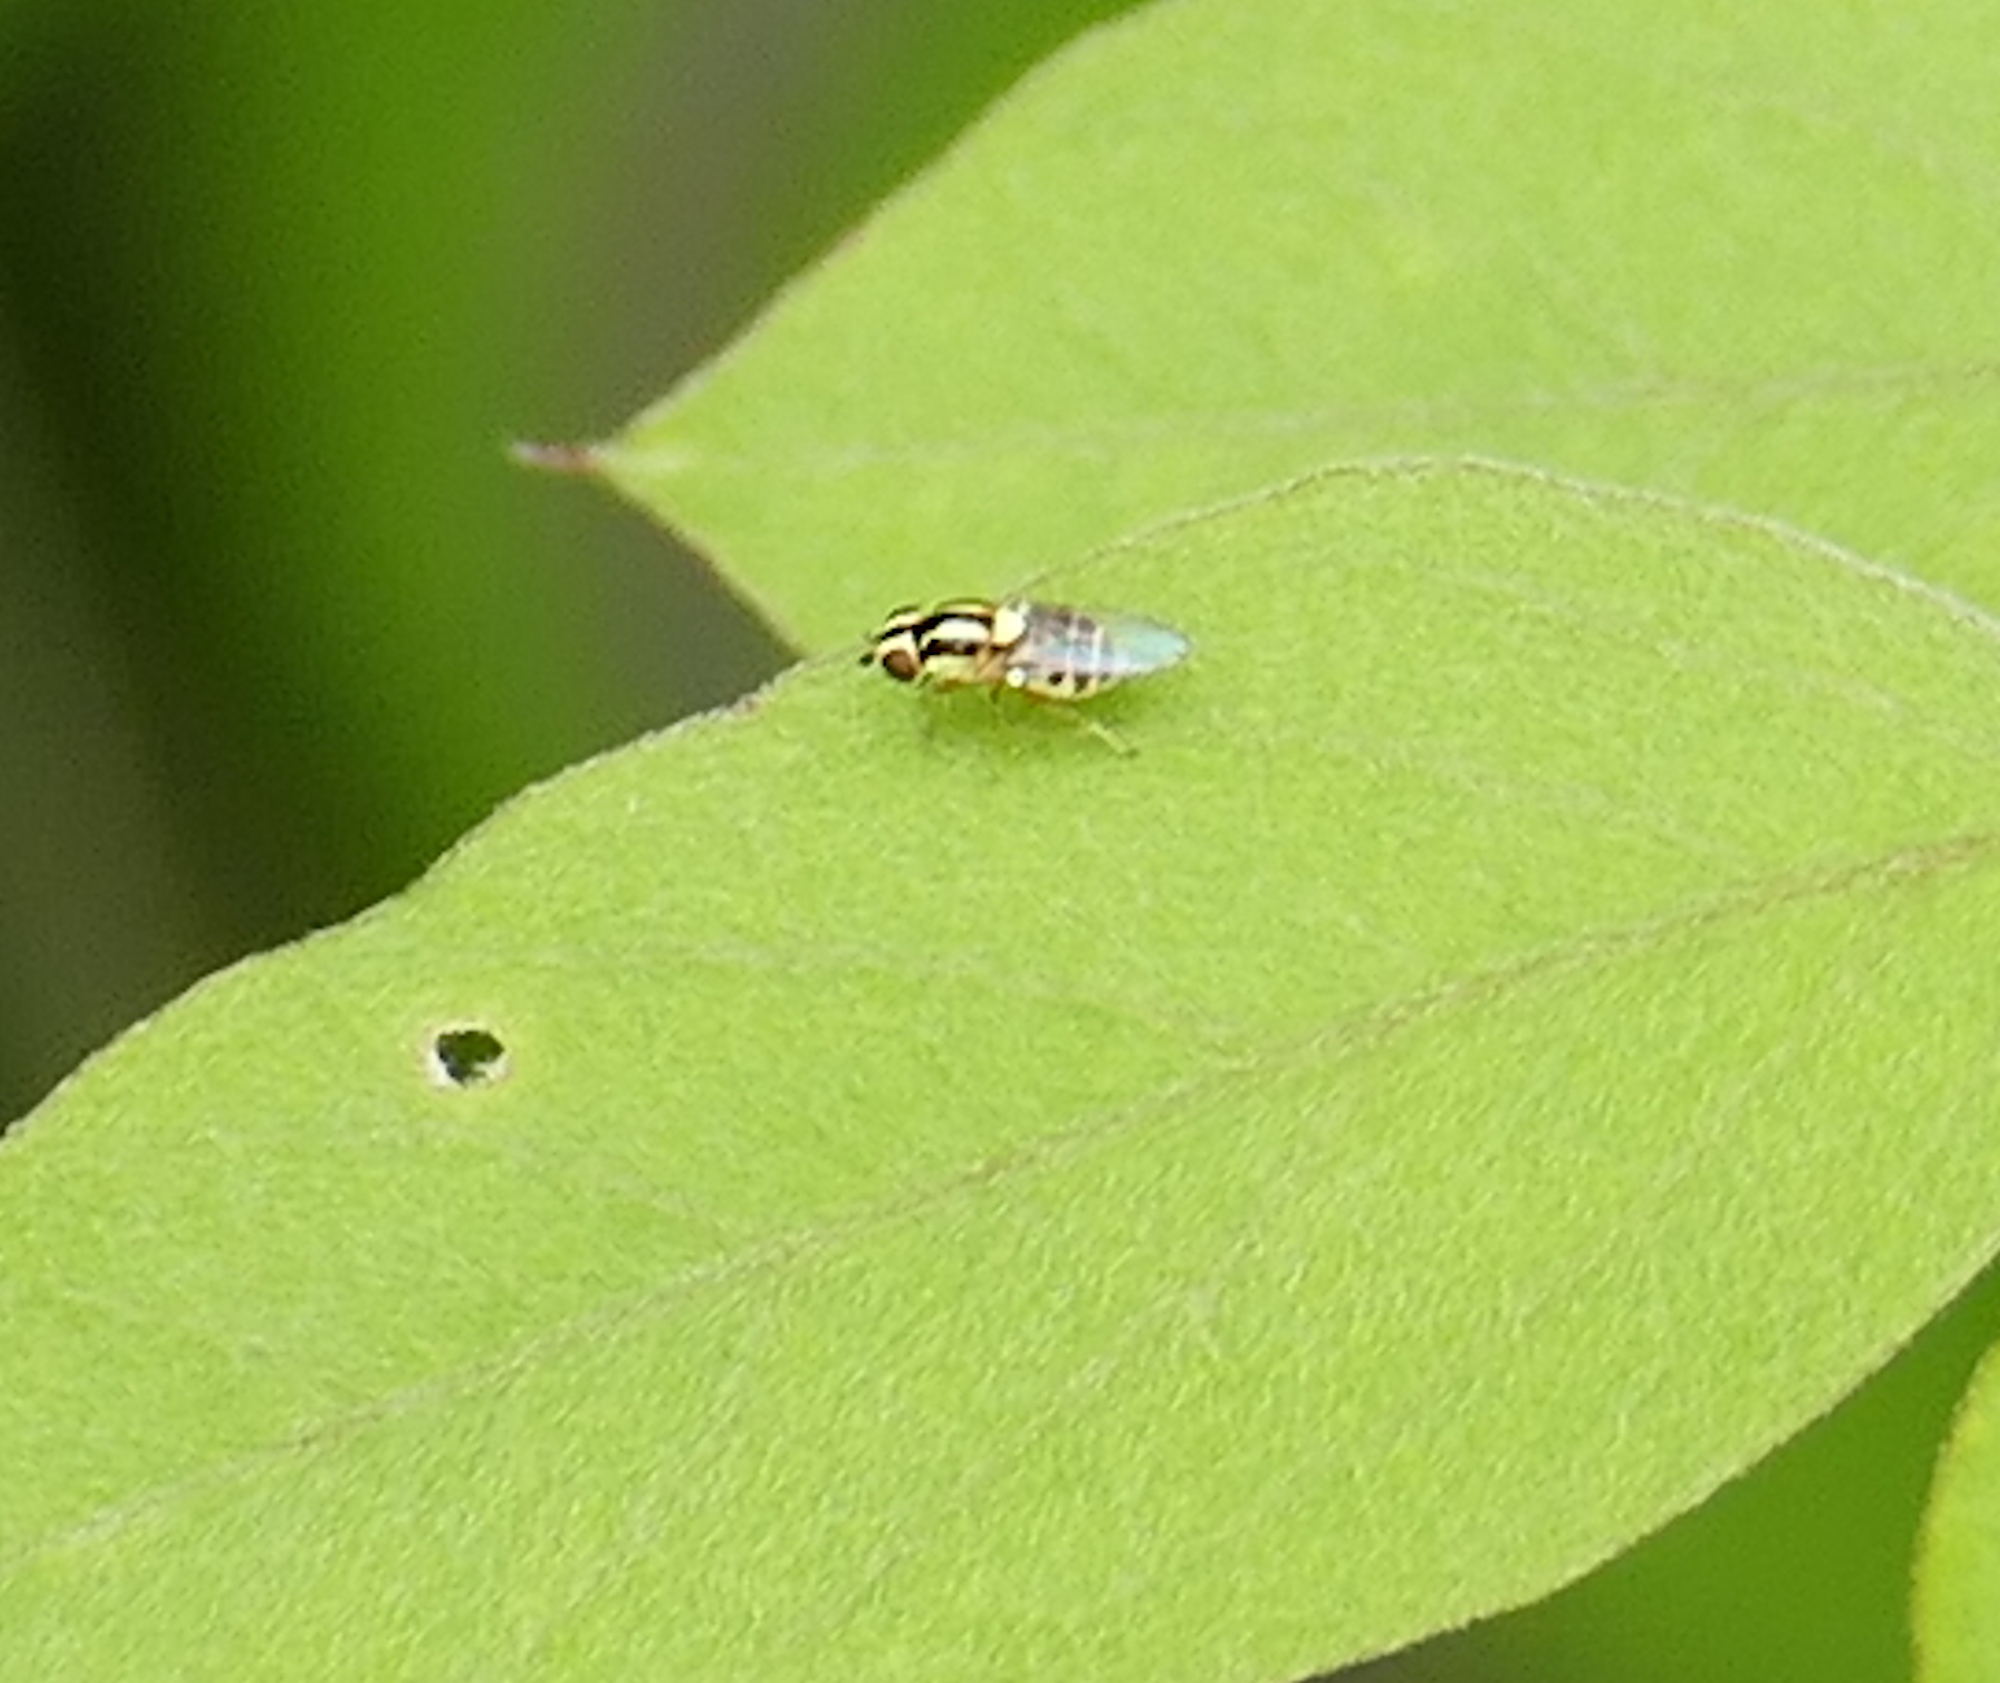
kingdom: Animalia
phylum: Arthropoda
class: Insecta
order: Diptera
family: Chloropidae
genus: Thaumatomyia
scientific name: Thaumatomyia glabra
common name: Chloropid fly
